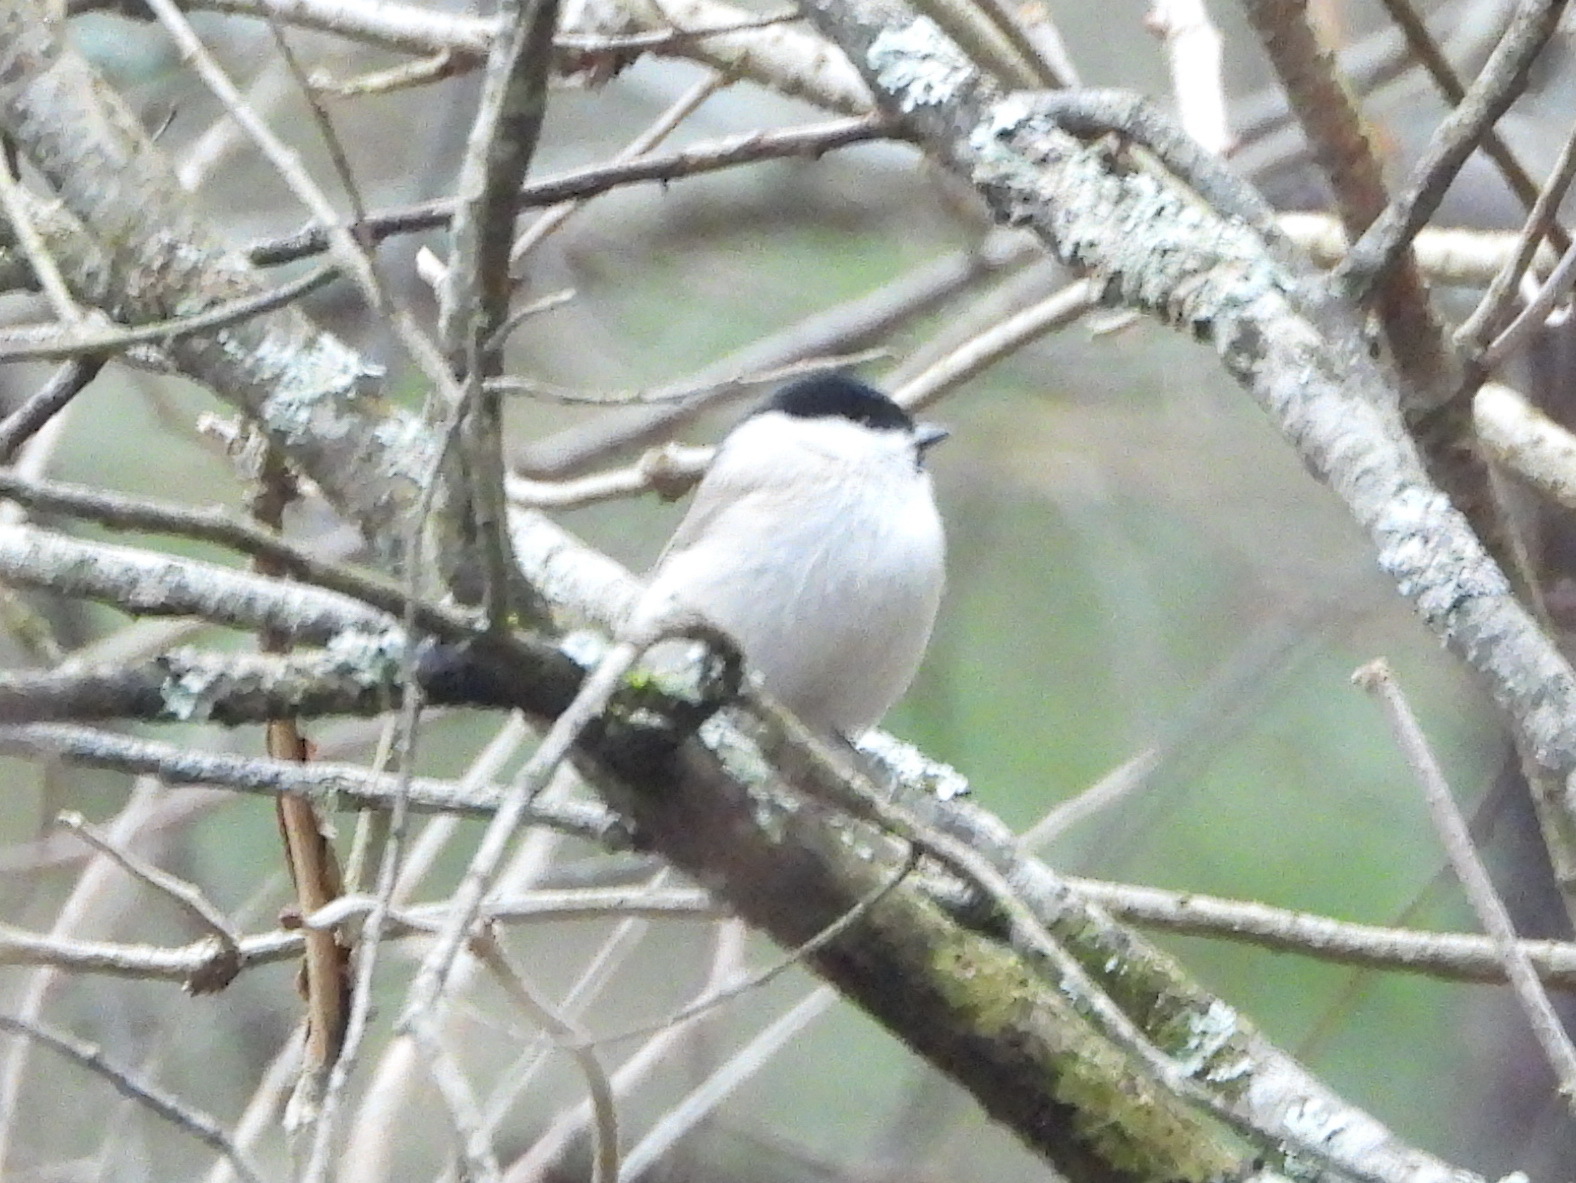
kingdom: Animalia
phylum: Chordata
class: Aves
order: Passeriformes
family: Paridae
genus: Poecile
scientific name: Poecile palustris
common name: Marsh tit
